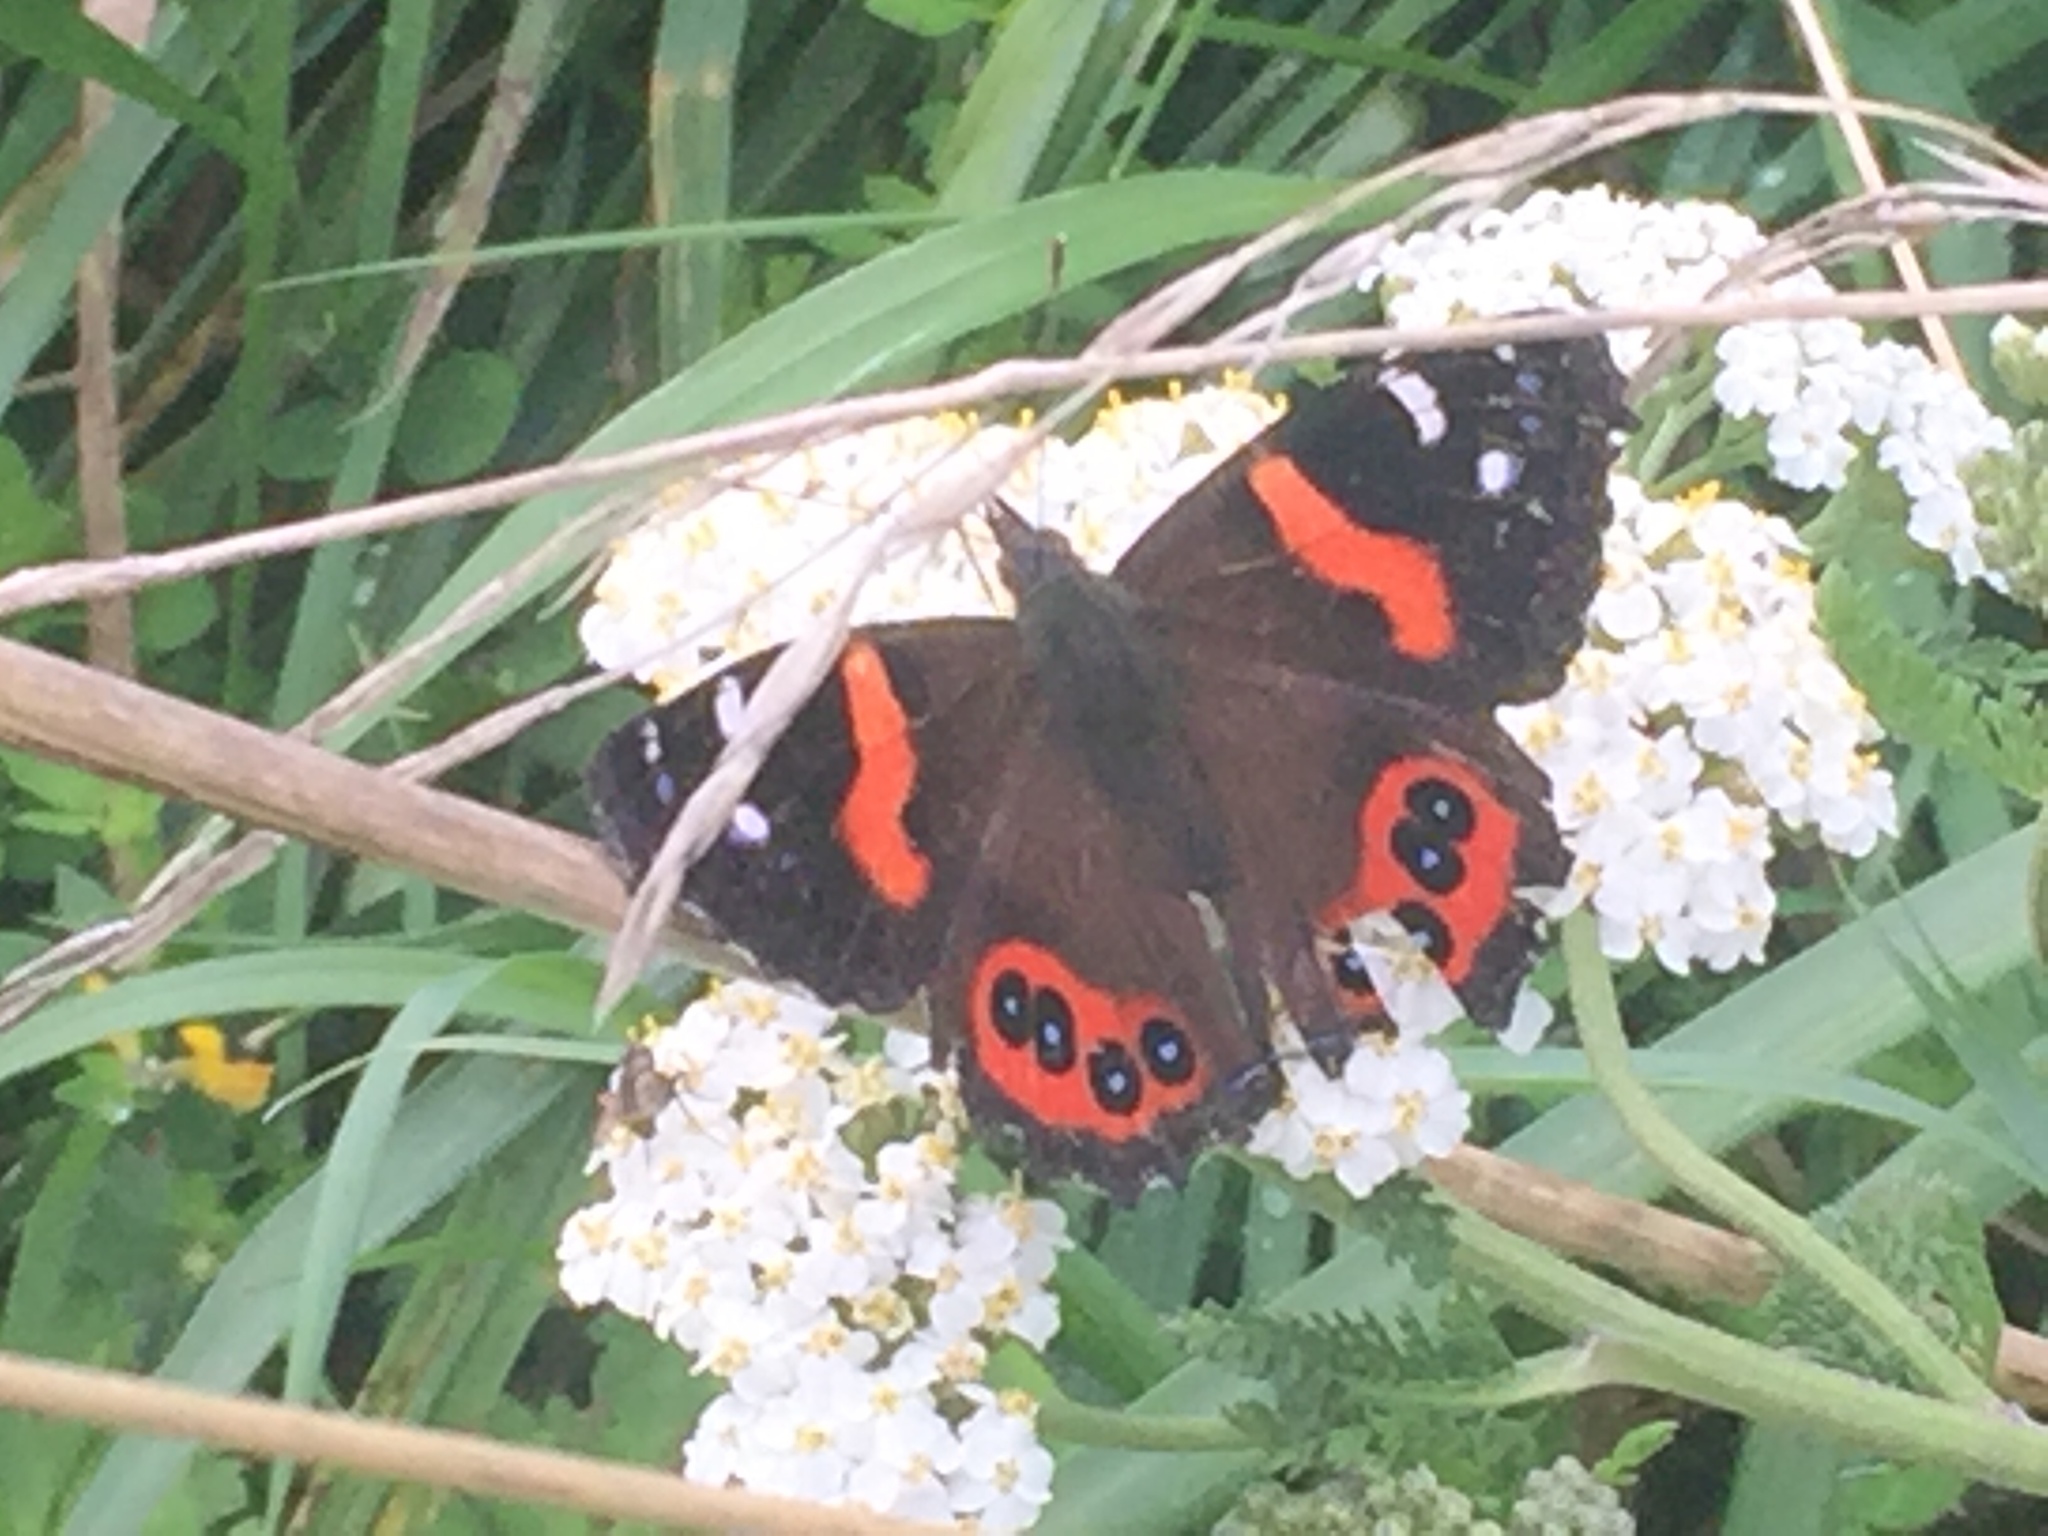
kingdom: Animalia
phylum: Arthropoda
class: Insecta
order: Lepidoptera
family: Nymphalidae
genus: Vanessa
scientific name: Vanessa gonerilla
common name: New zealand red admiral
